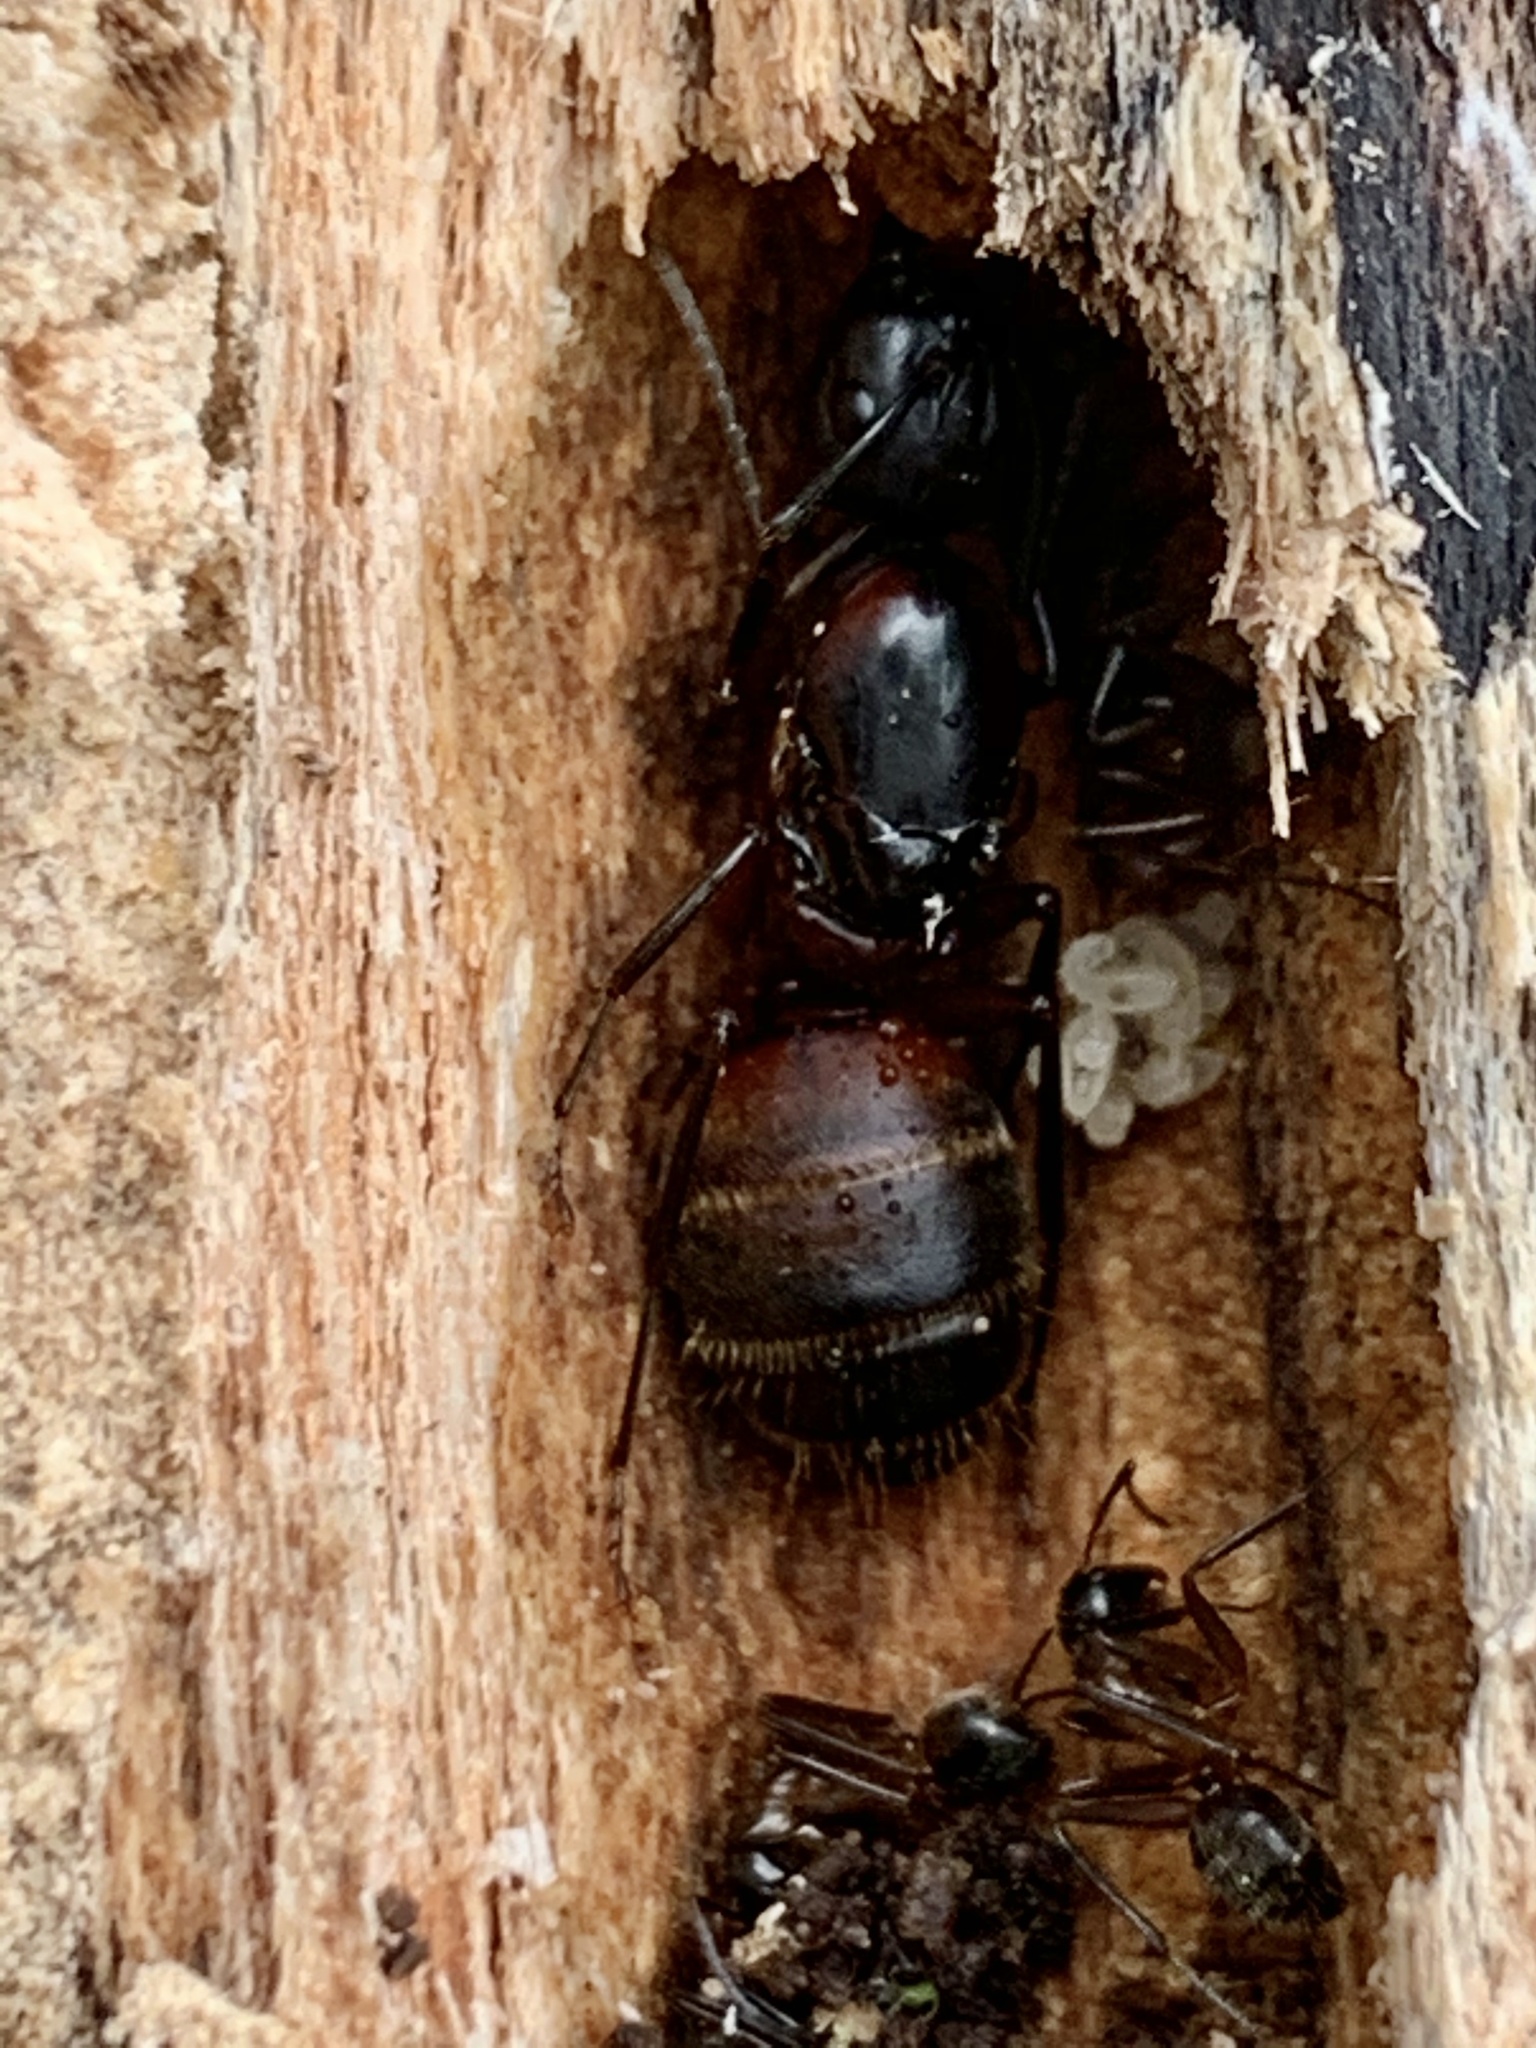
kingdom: Animalia
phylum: Arthropoda
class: Insecta
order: Hymenoptera
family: Formicidae
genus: Camponotus
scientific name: Camponotus chromaiodes
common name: Red carpenter ant
